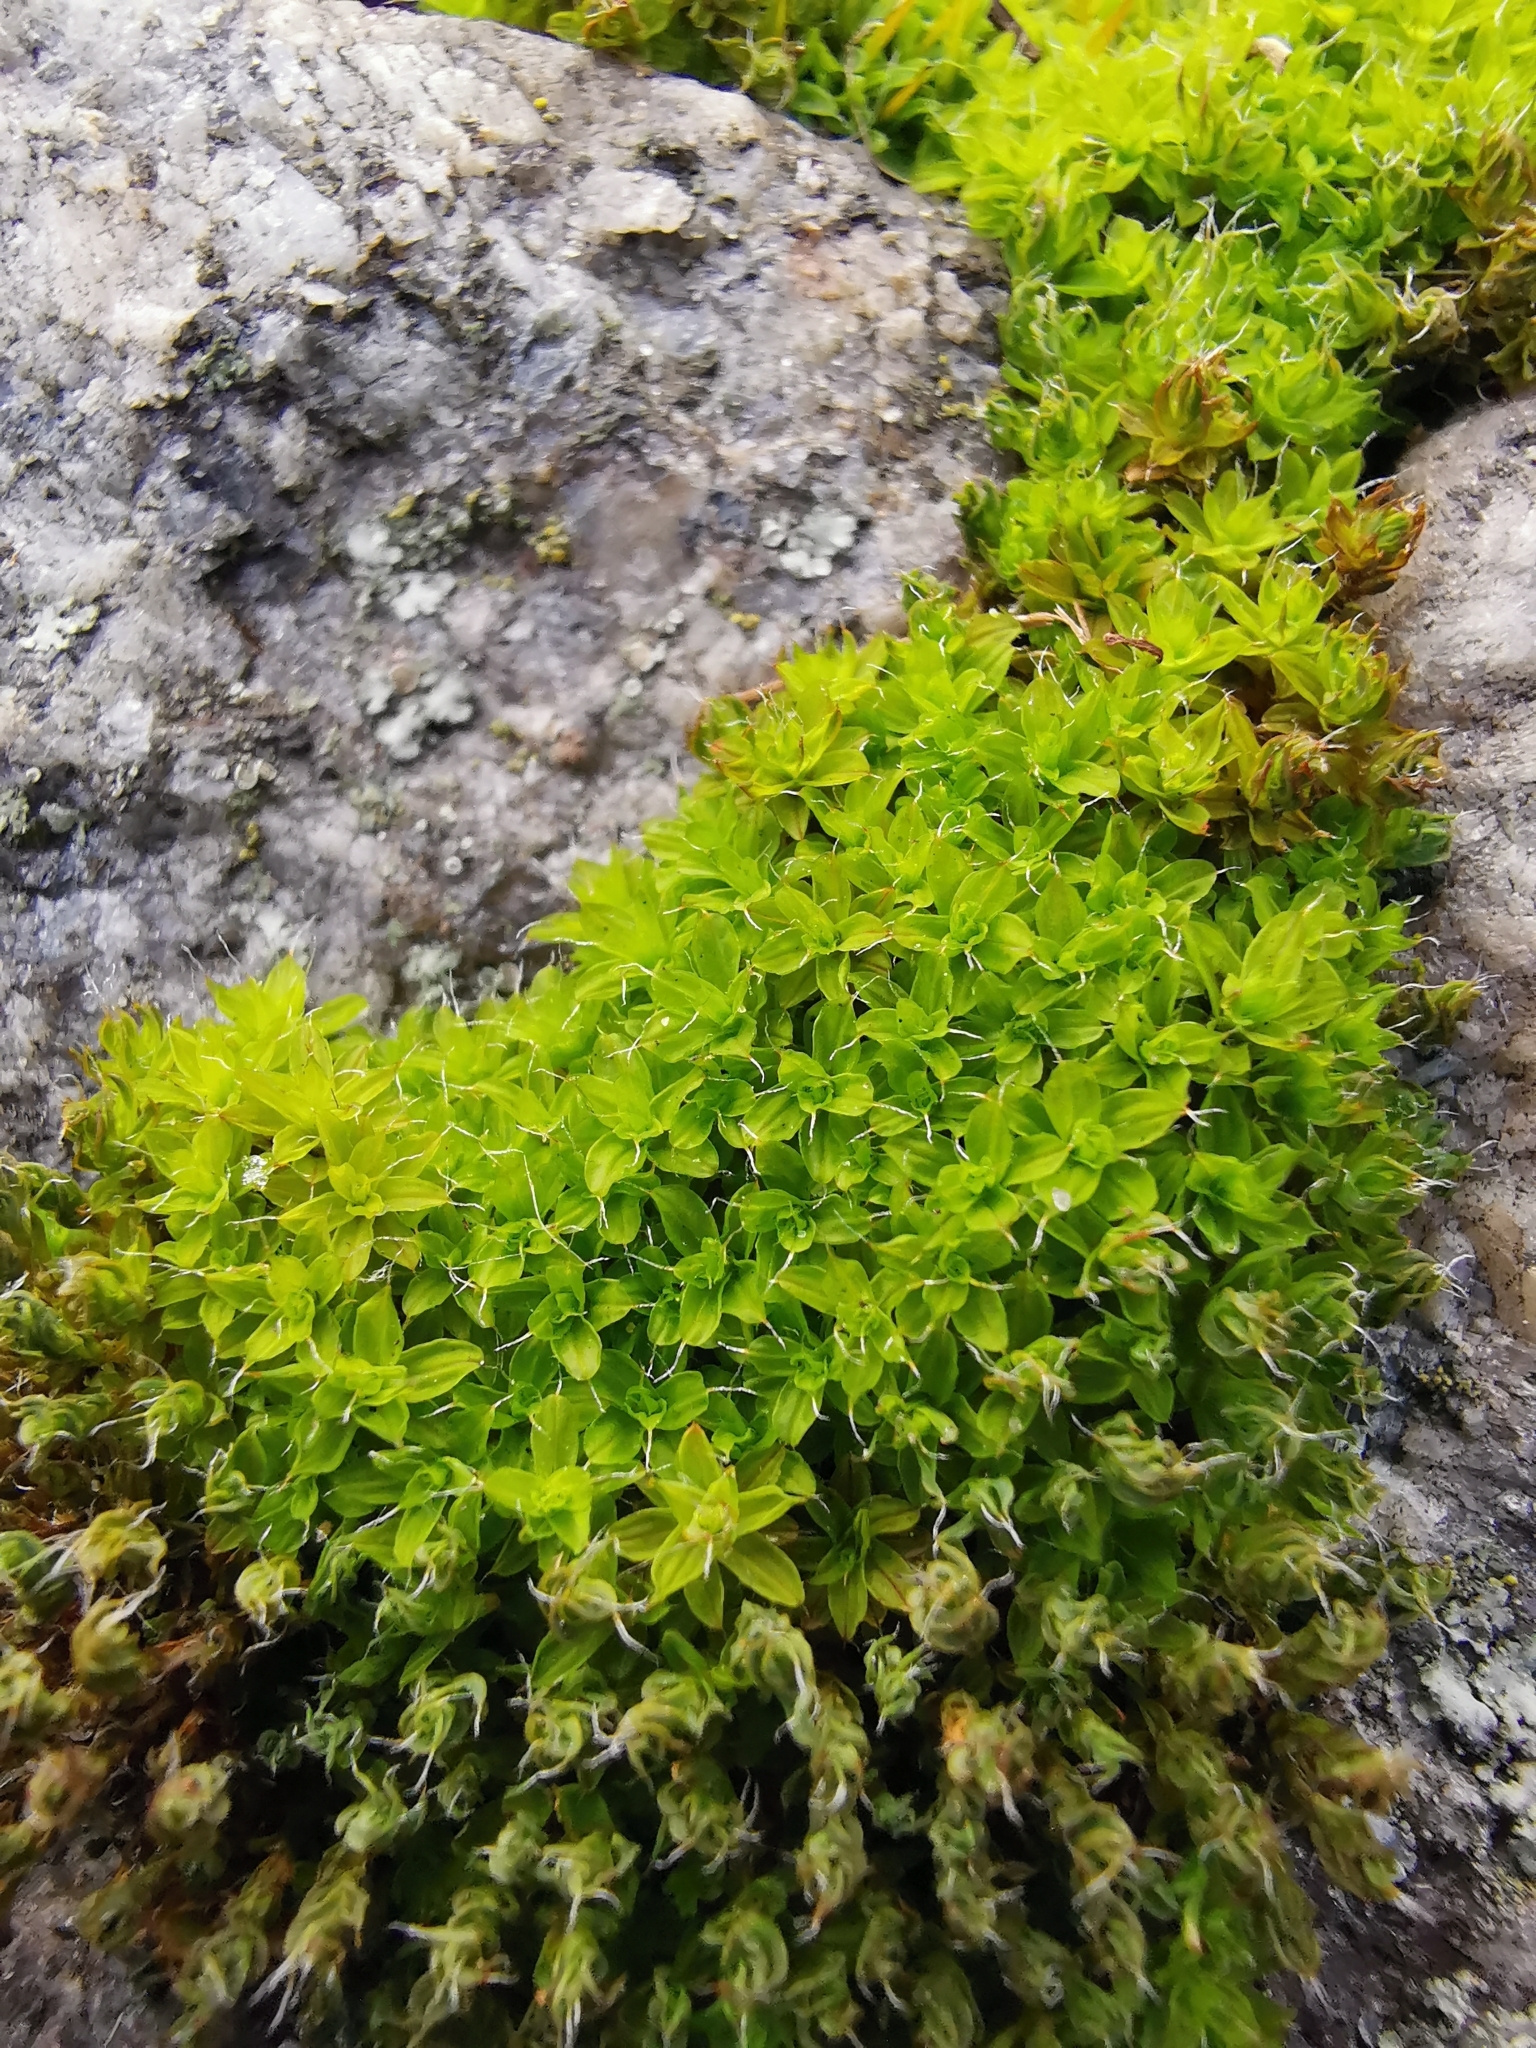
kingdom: Plantae
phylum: Bryophyta
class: Bryopsida
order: Pottiales
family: Pottiaceae
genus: Syntrichia
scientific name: Syntrichia ruralis
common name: Sidewalk screw moss
